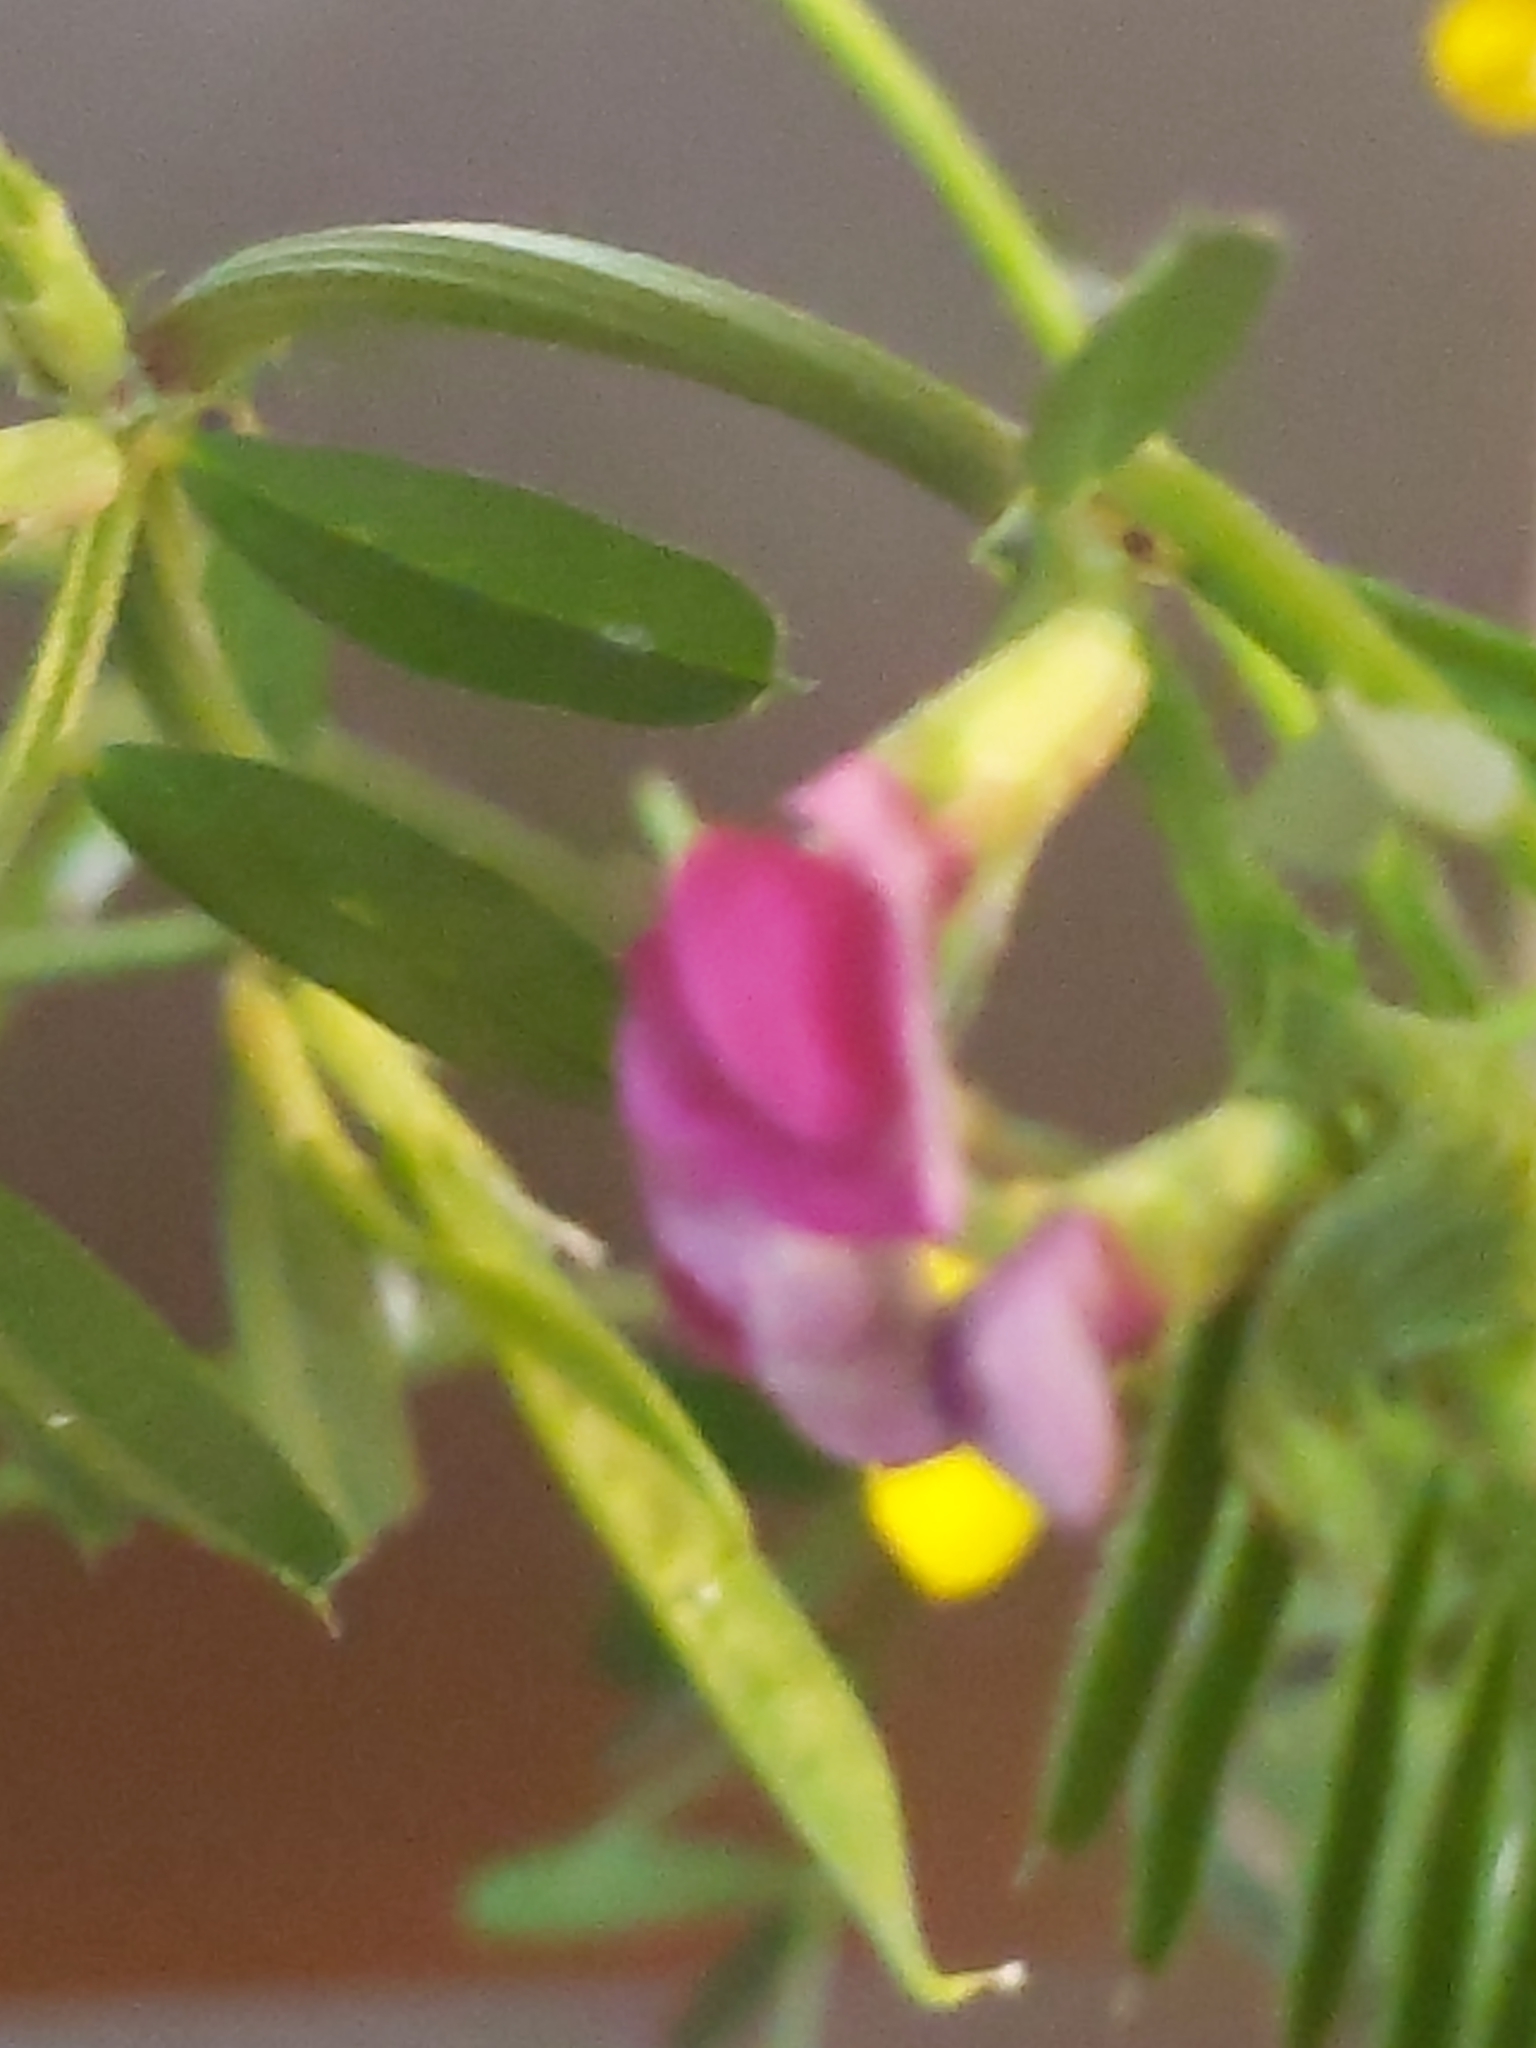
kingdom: Plantae
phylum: Tracheophyta
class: Magnoliopsida
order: Fabales
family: Fabaceae
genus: Vicia
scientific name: Vicia sativa
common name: Garden vetch
